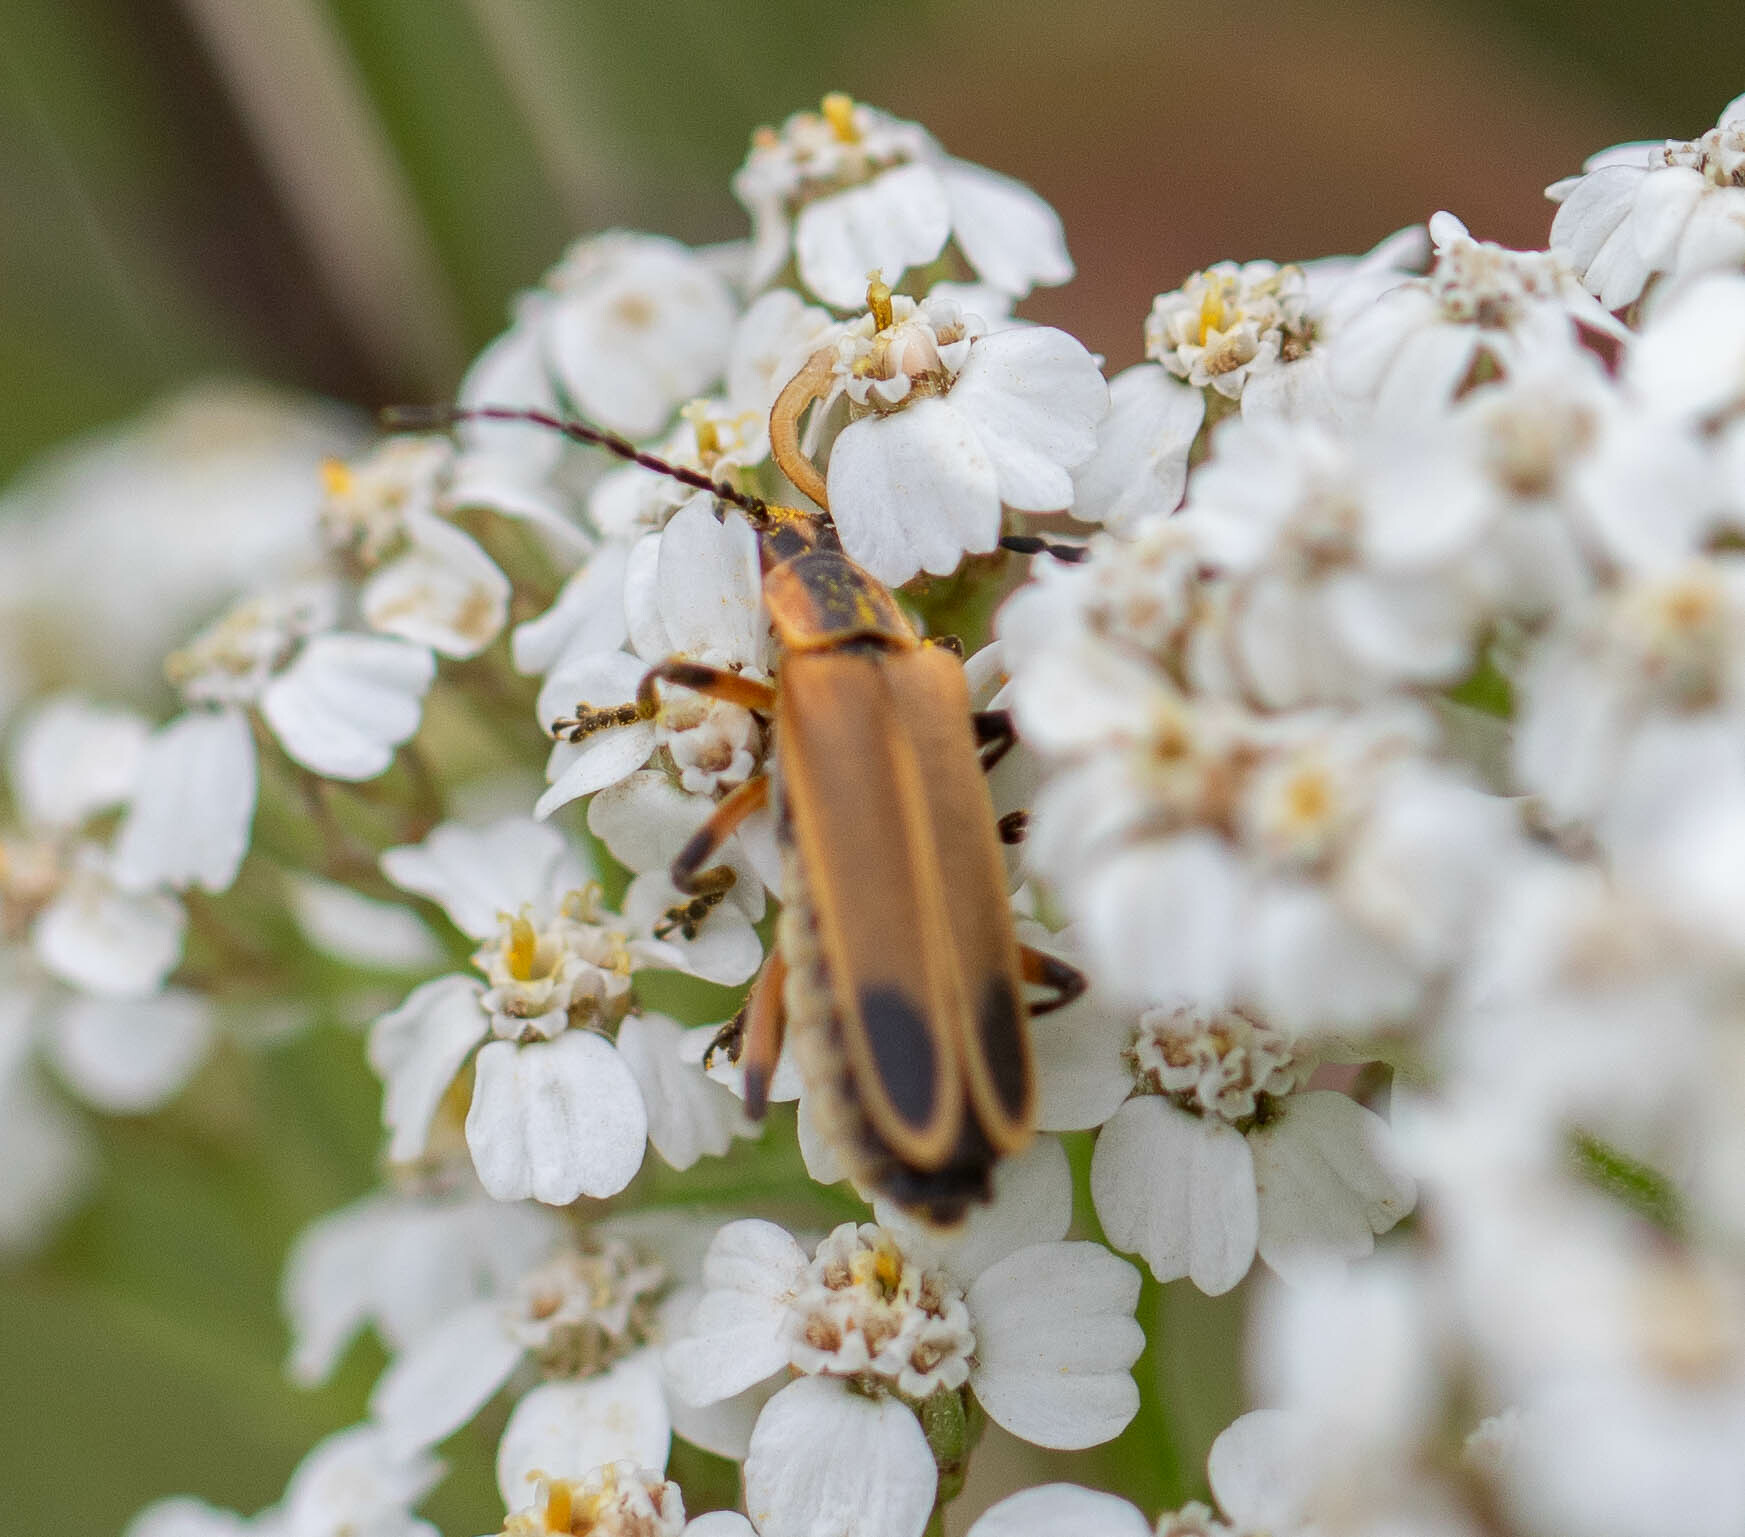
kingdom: Animalia
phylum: Arthropoda
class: Insecta
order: Coleoptera
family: Cantharidae
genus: Chauliognathus
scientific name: Chauliognathus marginatus
